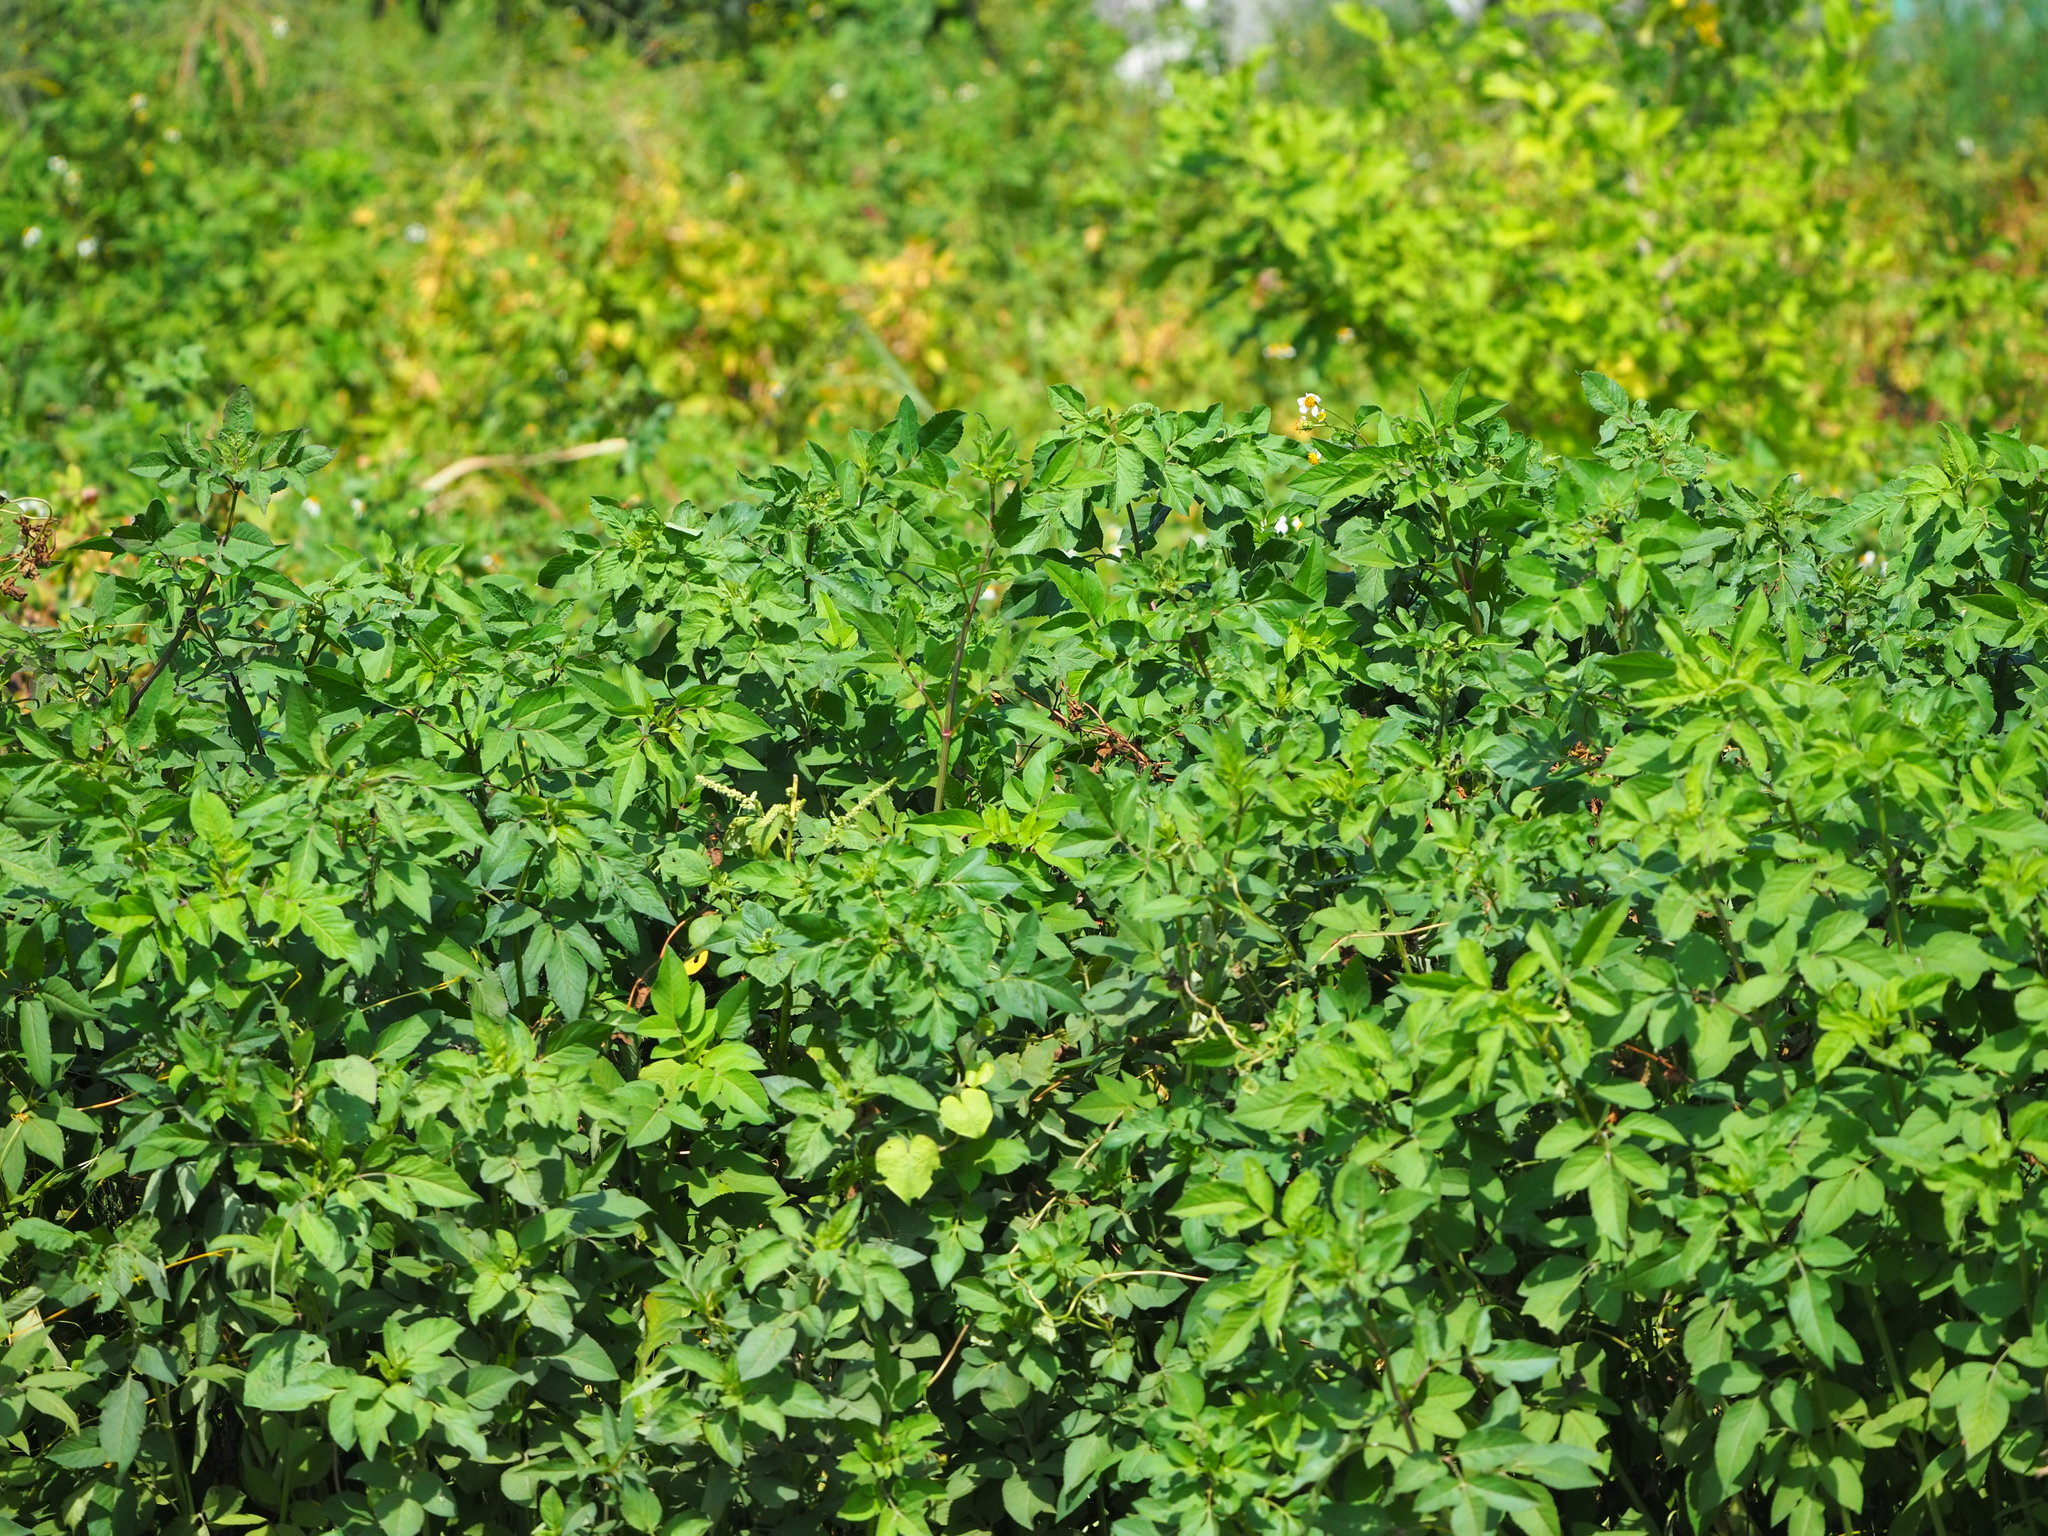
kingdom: Plantae
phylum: Tracheophyta
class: Magnoliopsida
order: Asterales
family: Asteraceae
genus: Bidens
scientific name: Bidens alba
